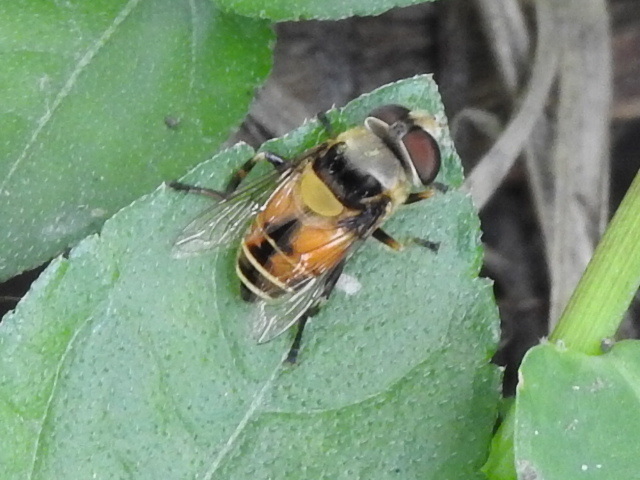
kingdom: Animalia
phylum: Arthropoda
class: Insecta
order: Diptera
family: Syrphidae
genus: Palpada
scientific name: Palpada pusilla
